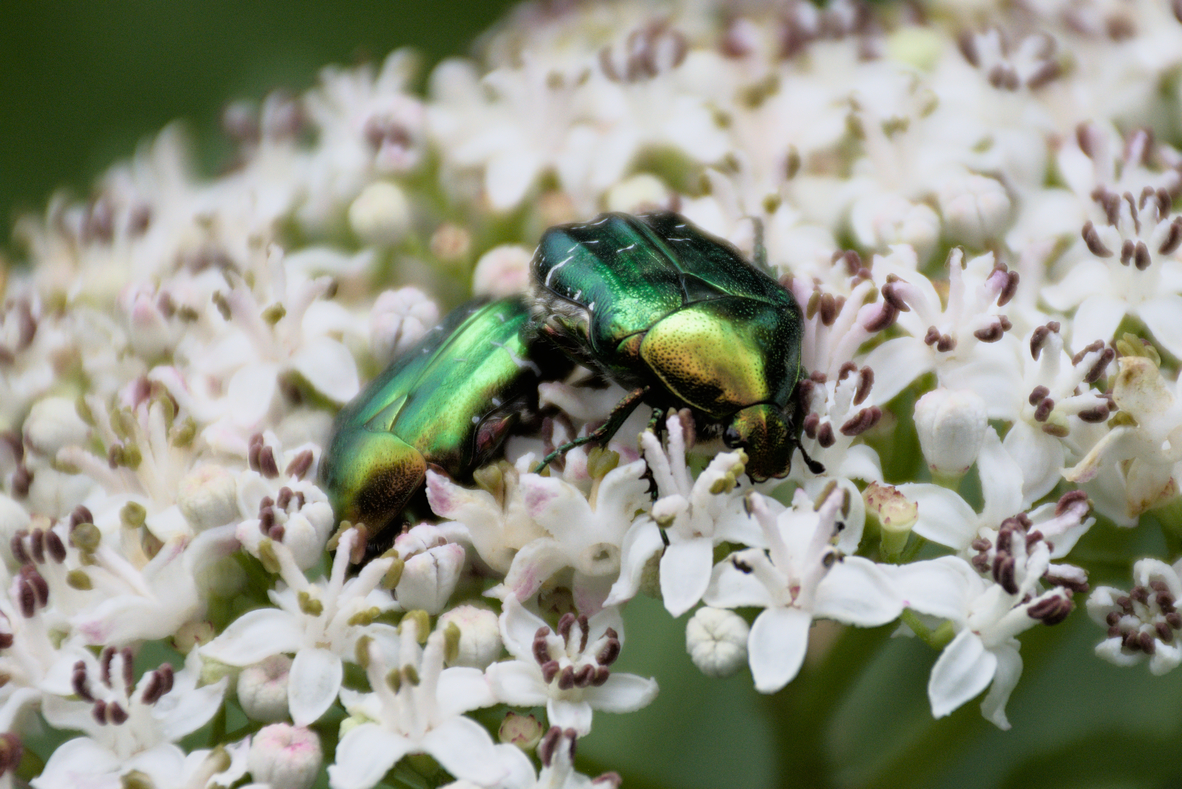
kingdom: Animalia
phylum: Arthropoda
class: Insecta
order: Coleoptera
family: Scarabaeidae
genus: Cetonia
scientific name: Cetonia aurata
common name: Rose chafer
